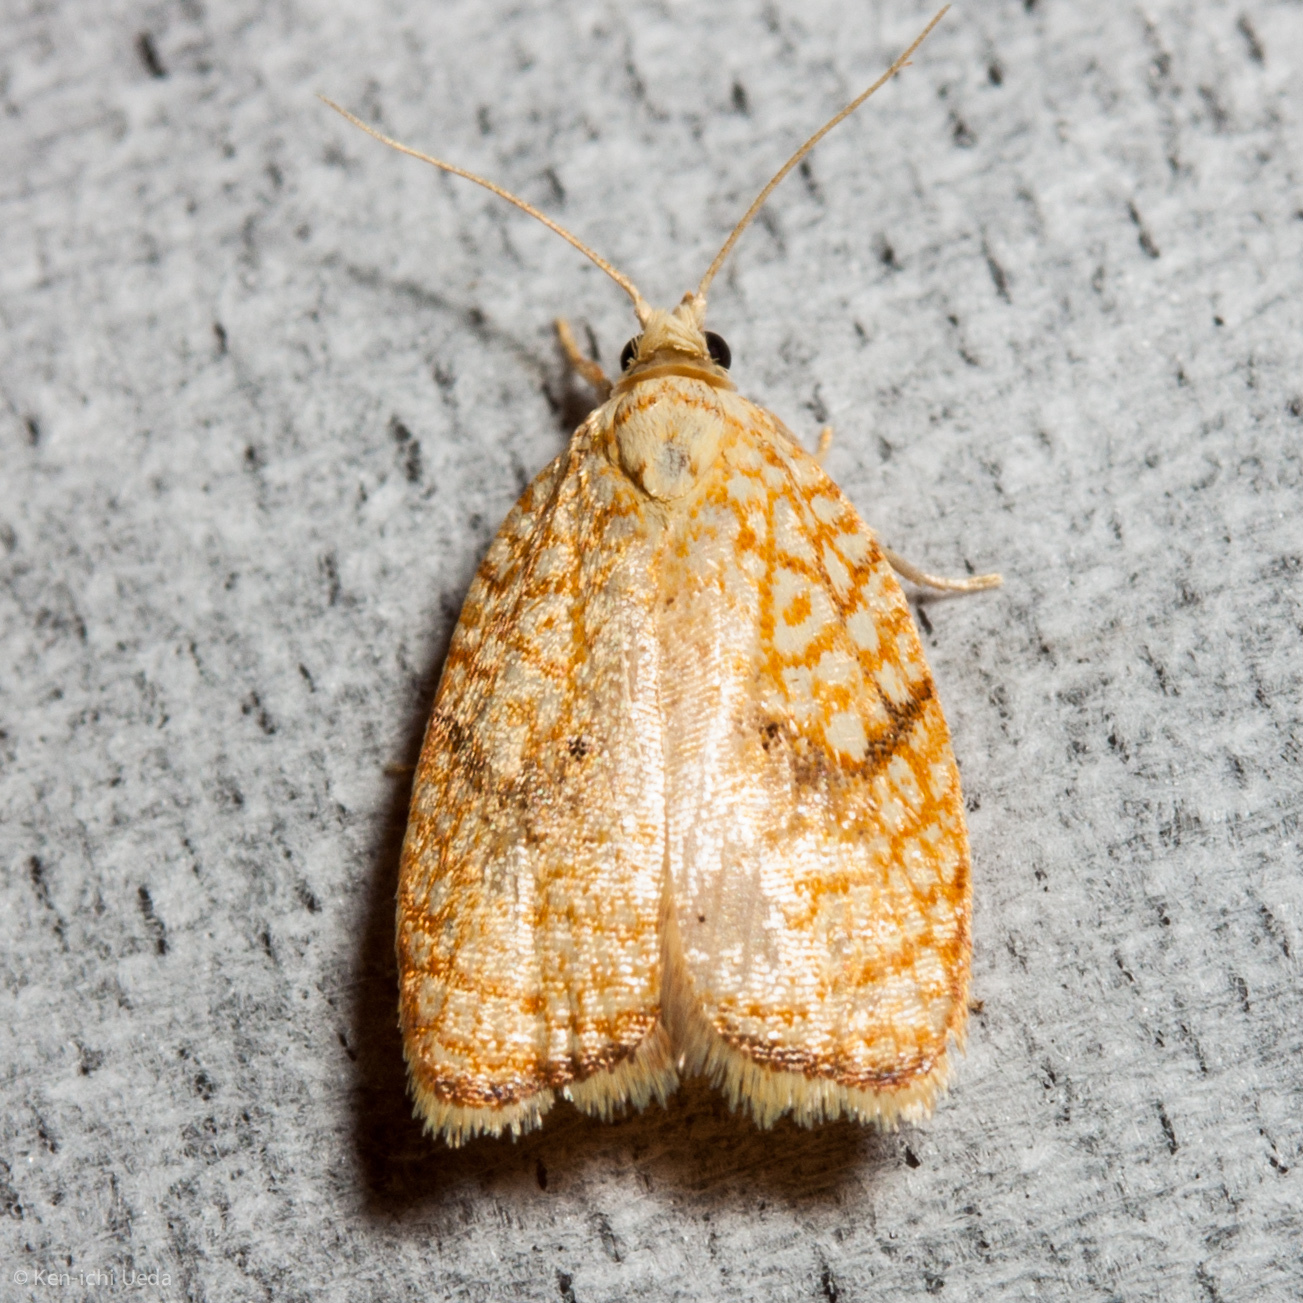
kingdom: Animalia
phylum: Arthropoda
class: Insecta
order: Lepidoptera
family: Tortricidae
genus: Acleris
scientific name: Acleris forsskaleana
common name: Maple button
